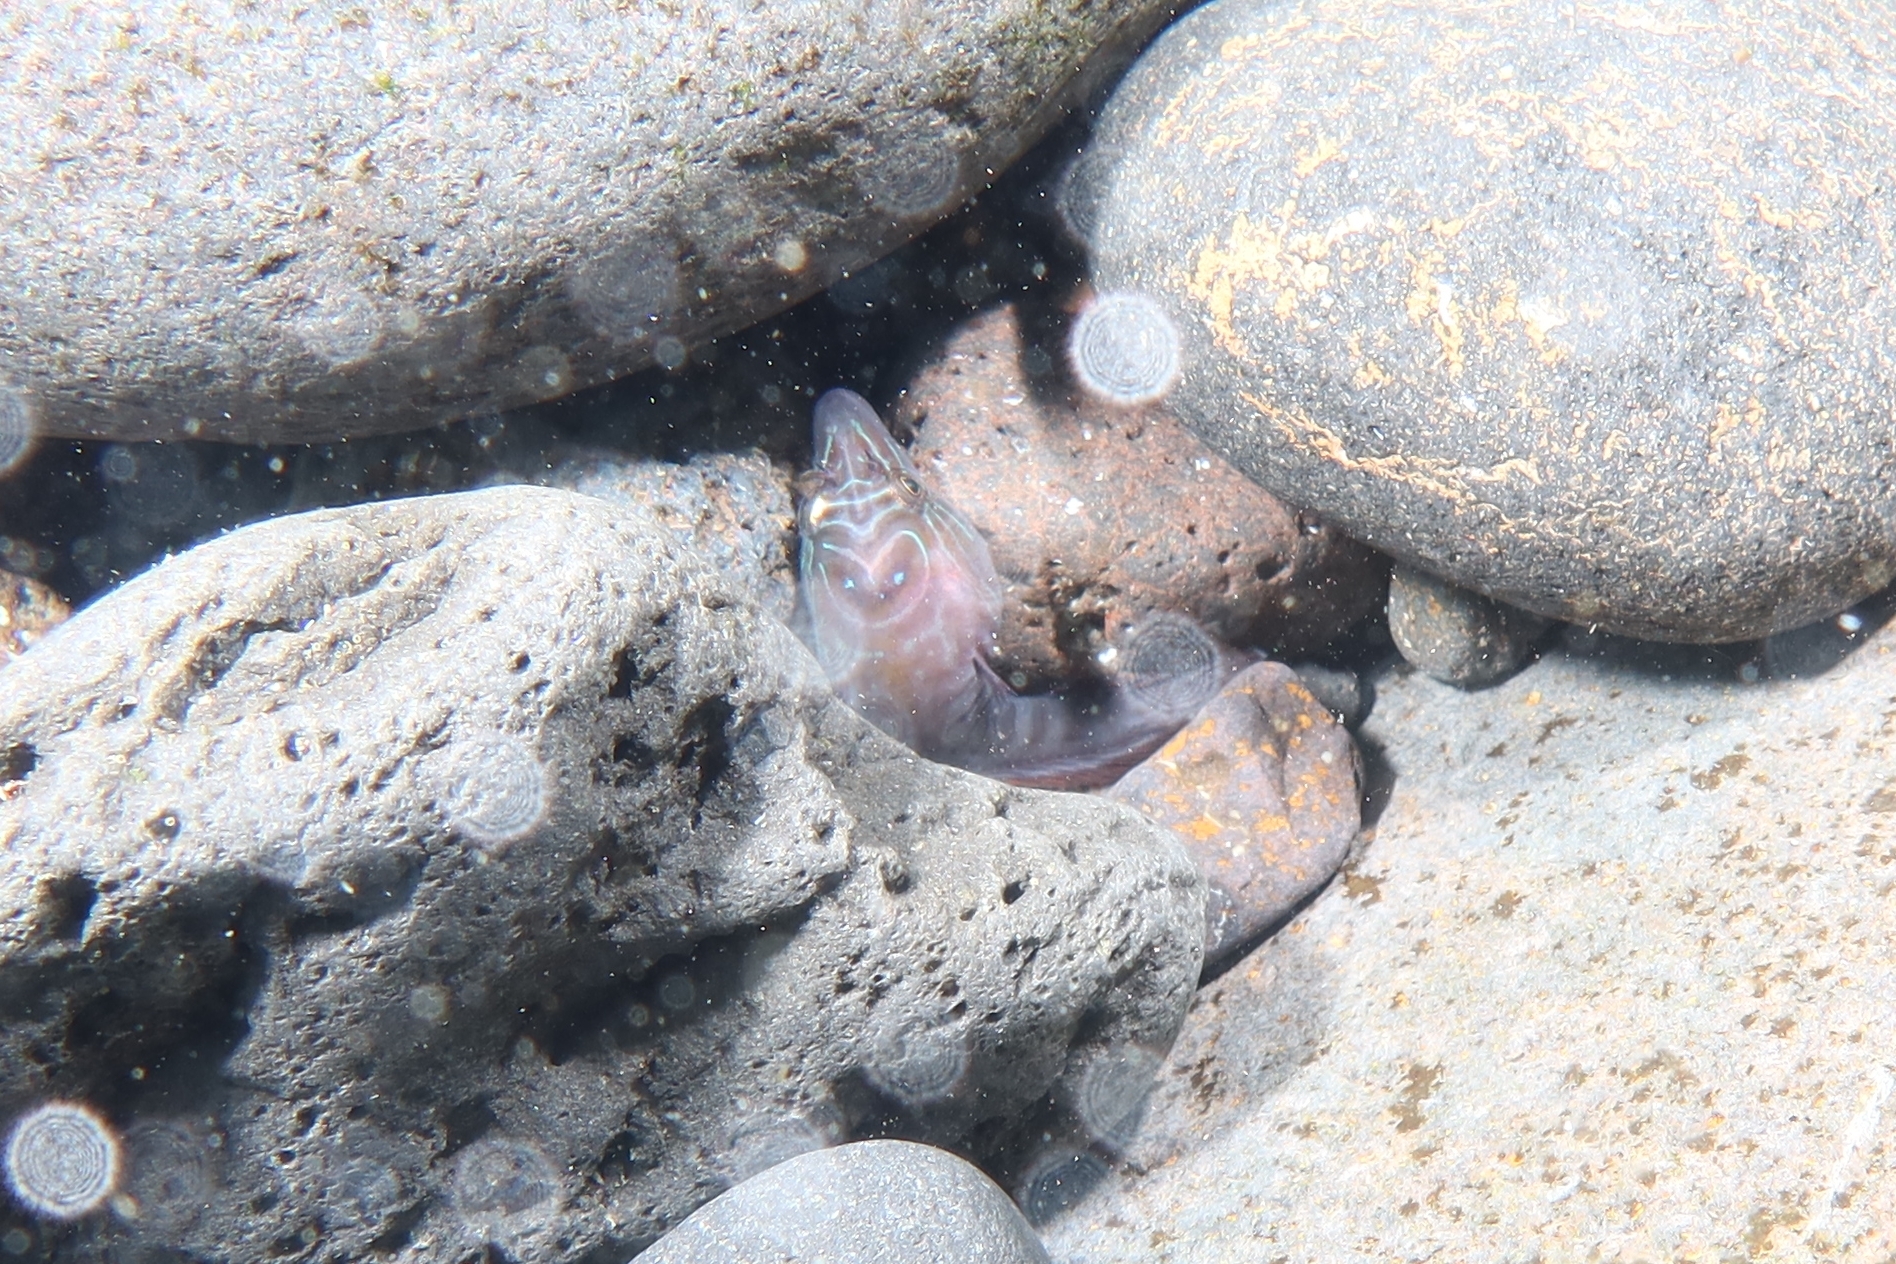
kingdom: Animalia
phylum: Chordata
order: Gobiesociformes
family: Gobiesocidae
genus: Lepadogaster
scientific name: Lepadogaster lepadogaster
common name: Cornish sucker
